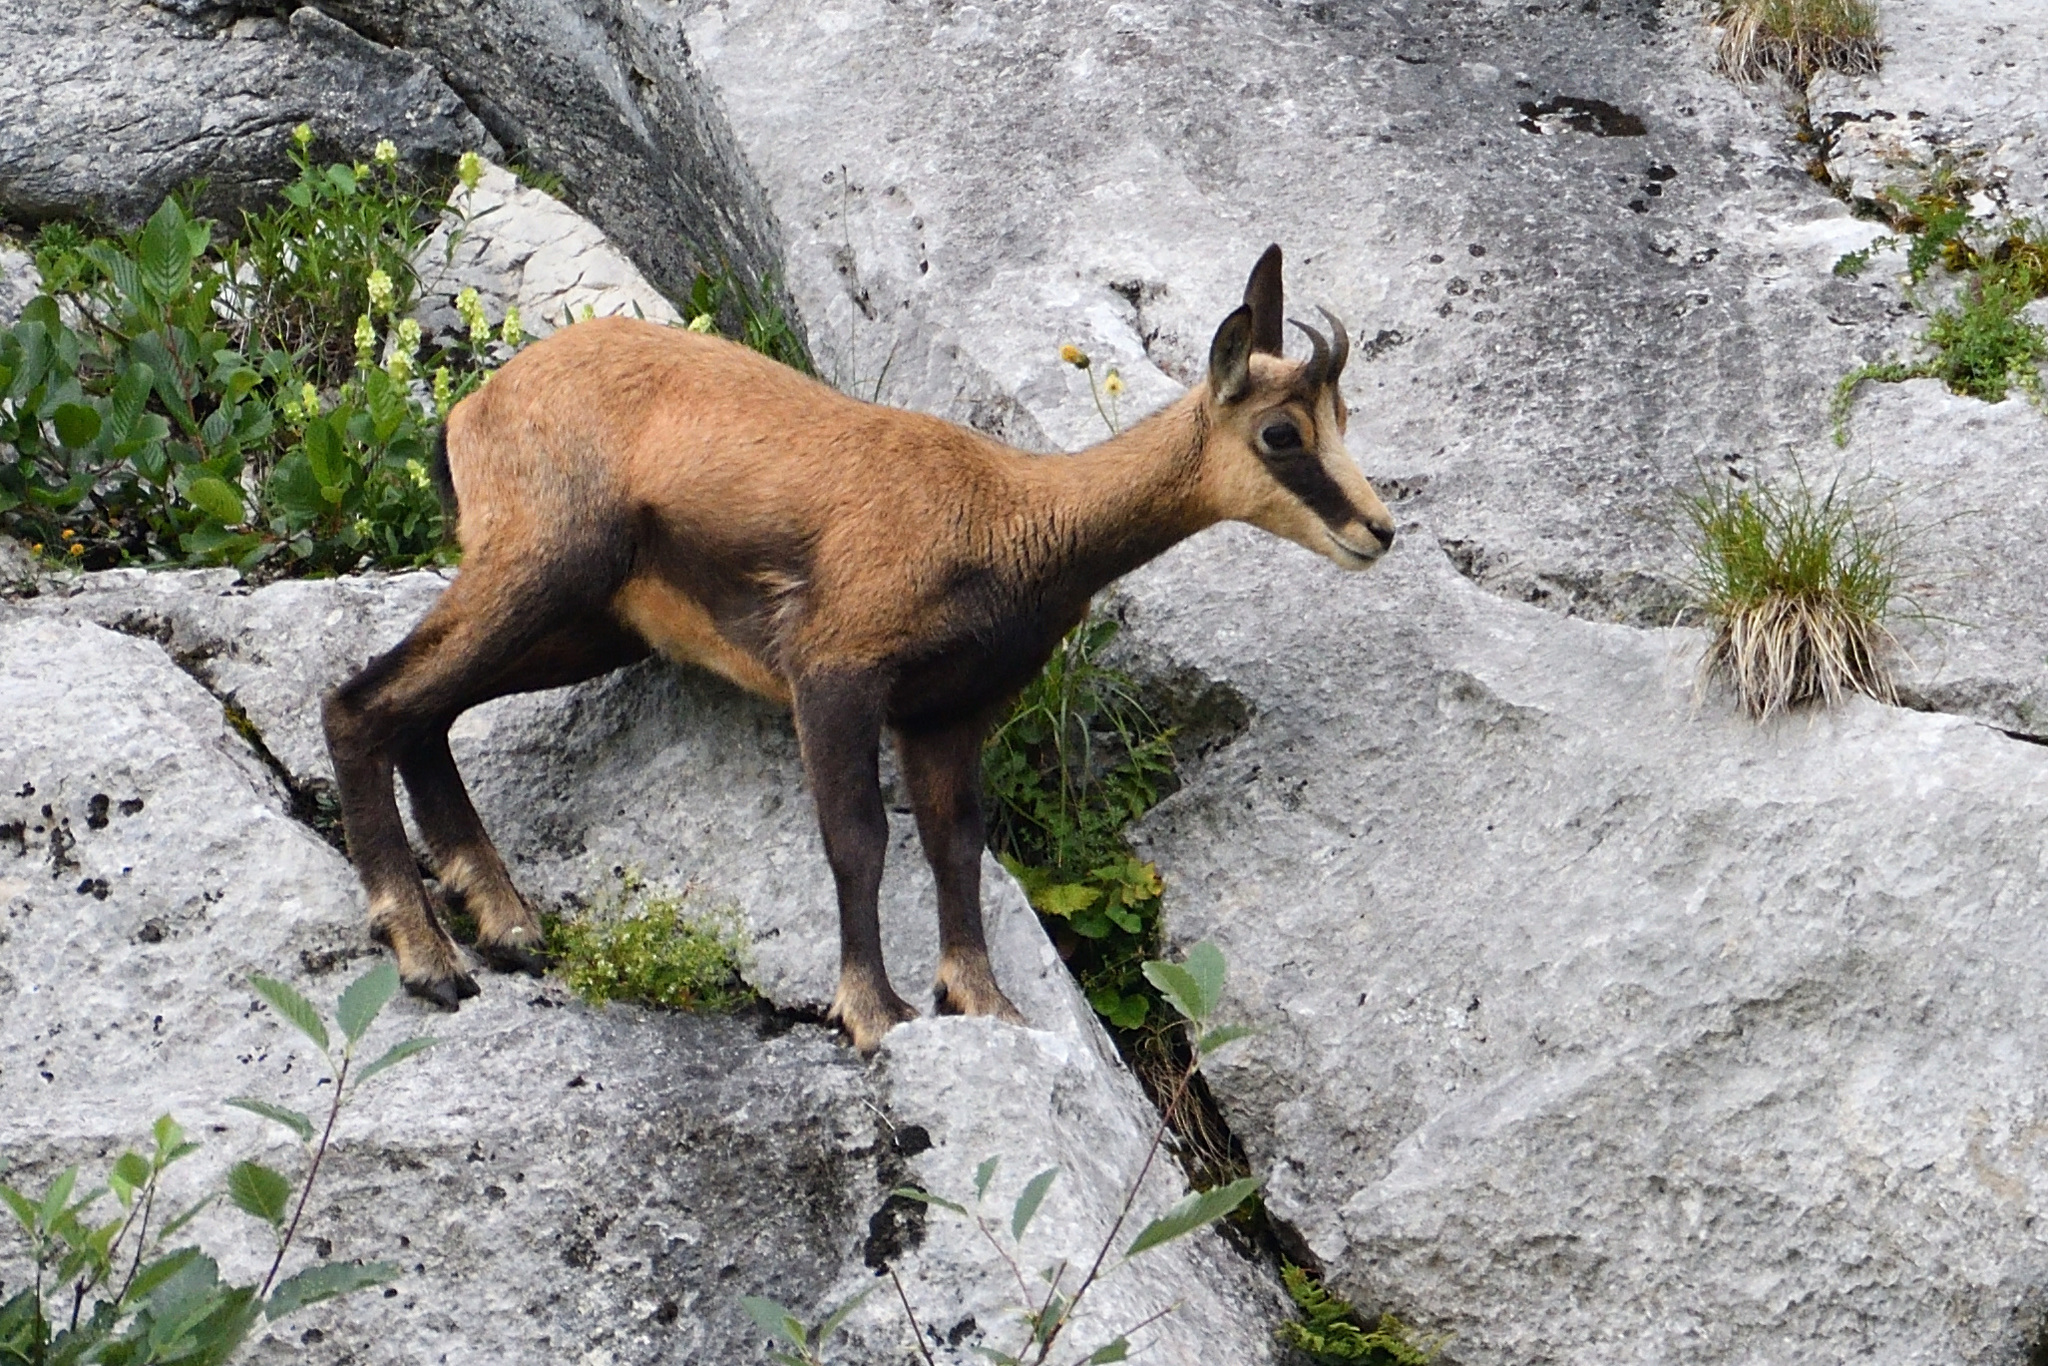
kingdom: Animalia
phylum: Chordata
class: Mammalia
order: Artiodactyla
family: Bovidae
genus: Rupicapra
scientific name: Rupicapra rupicapra
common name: Chamois
